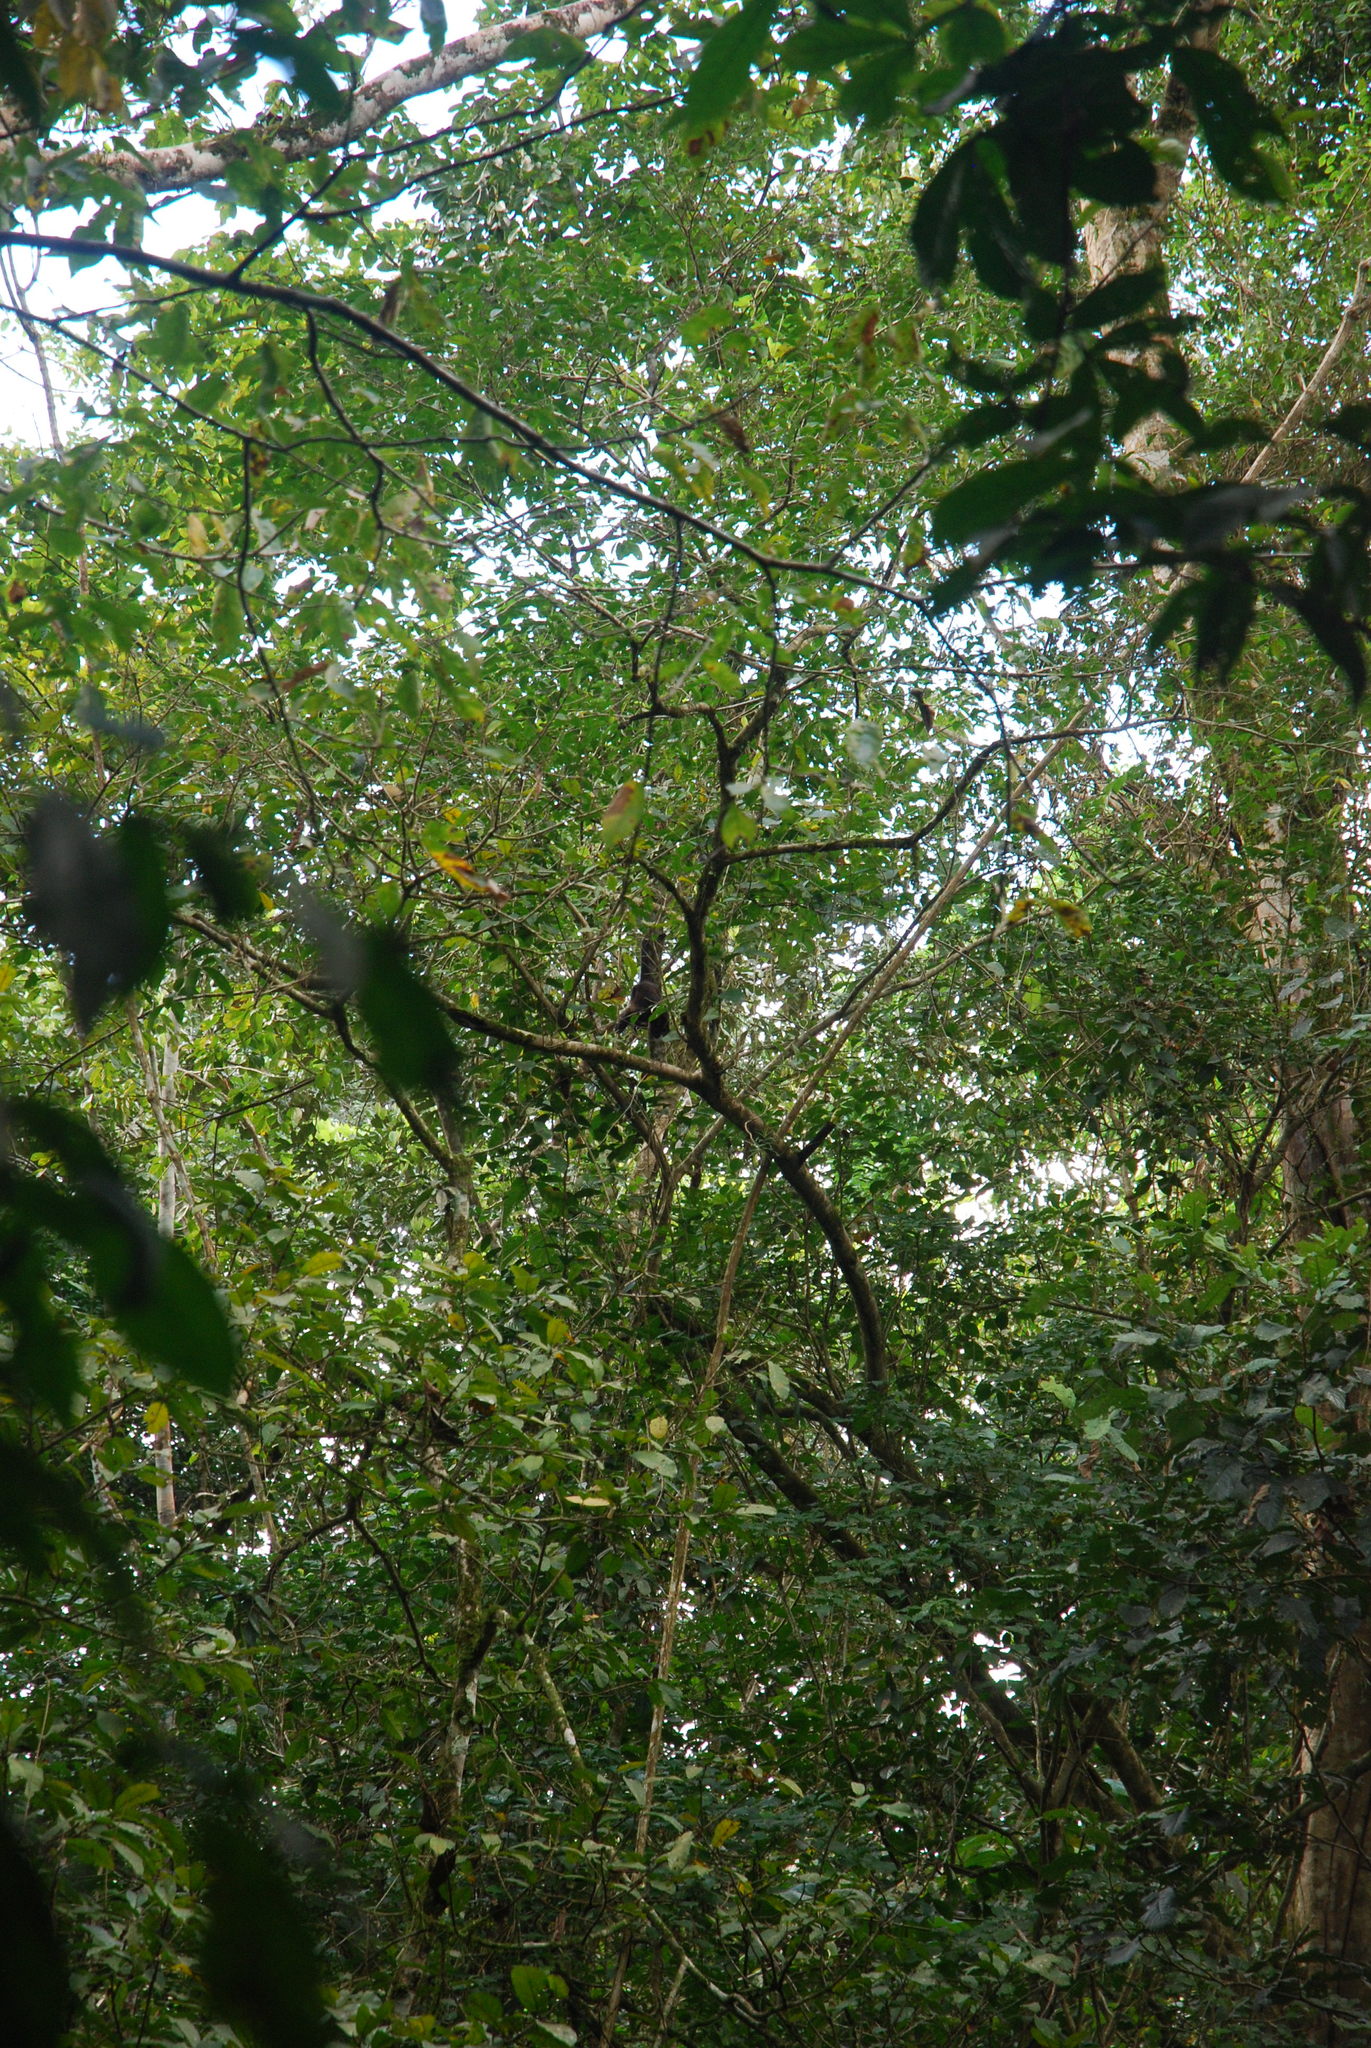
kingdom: Animalia
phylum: Chordata
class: Mammalia
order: Primates
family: Atelidae
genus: Alouatta
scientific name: Alouatta palliata
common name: Mantled howler
